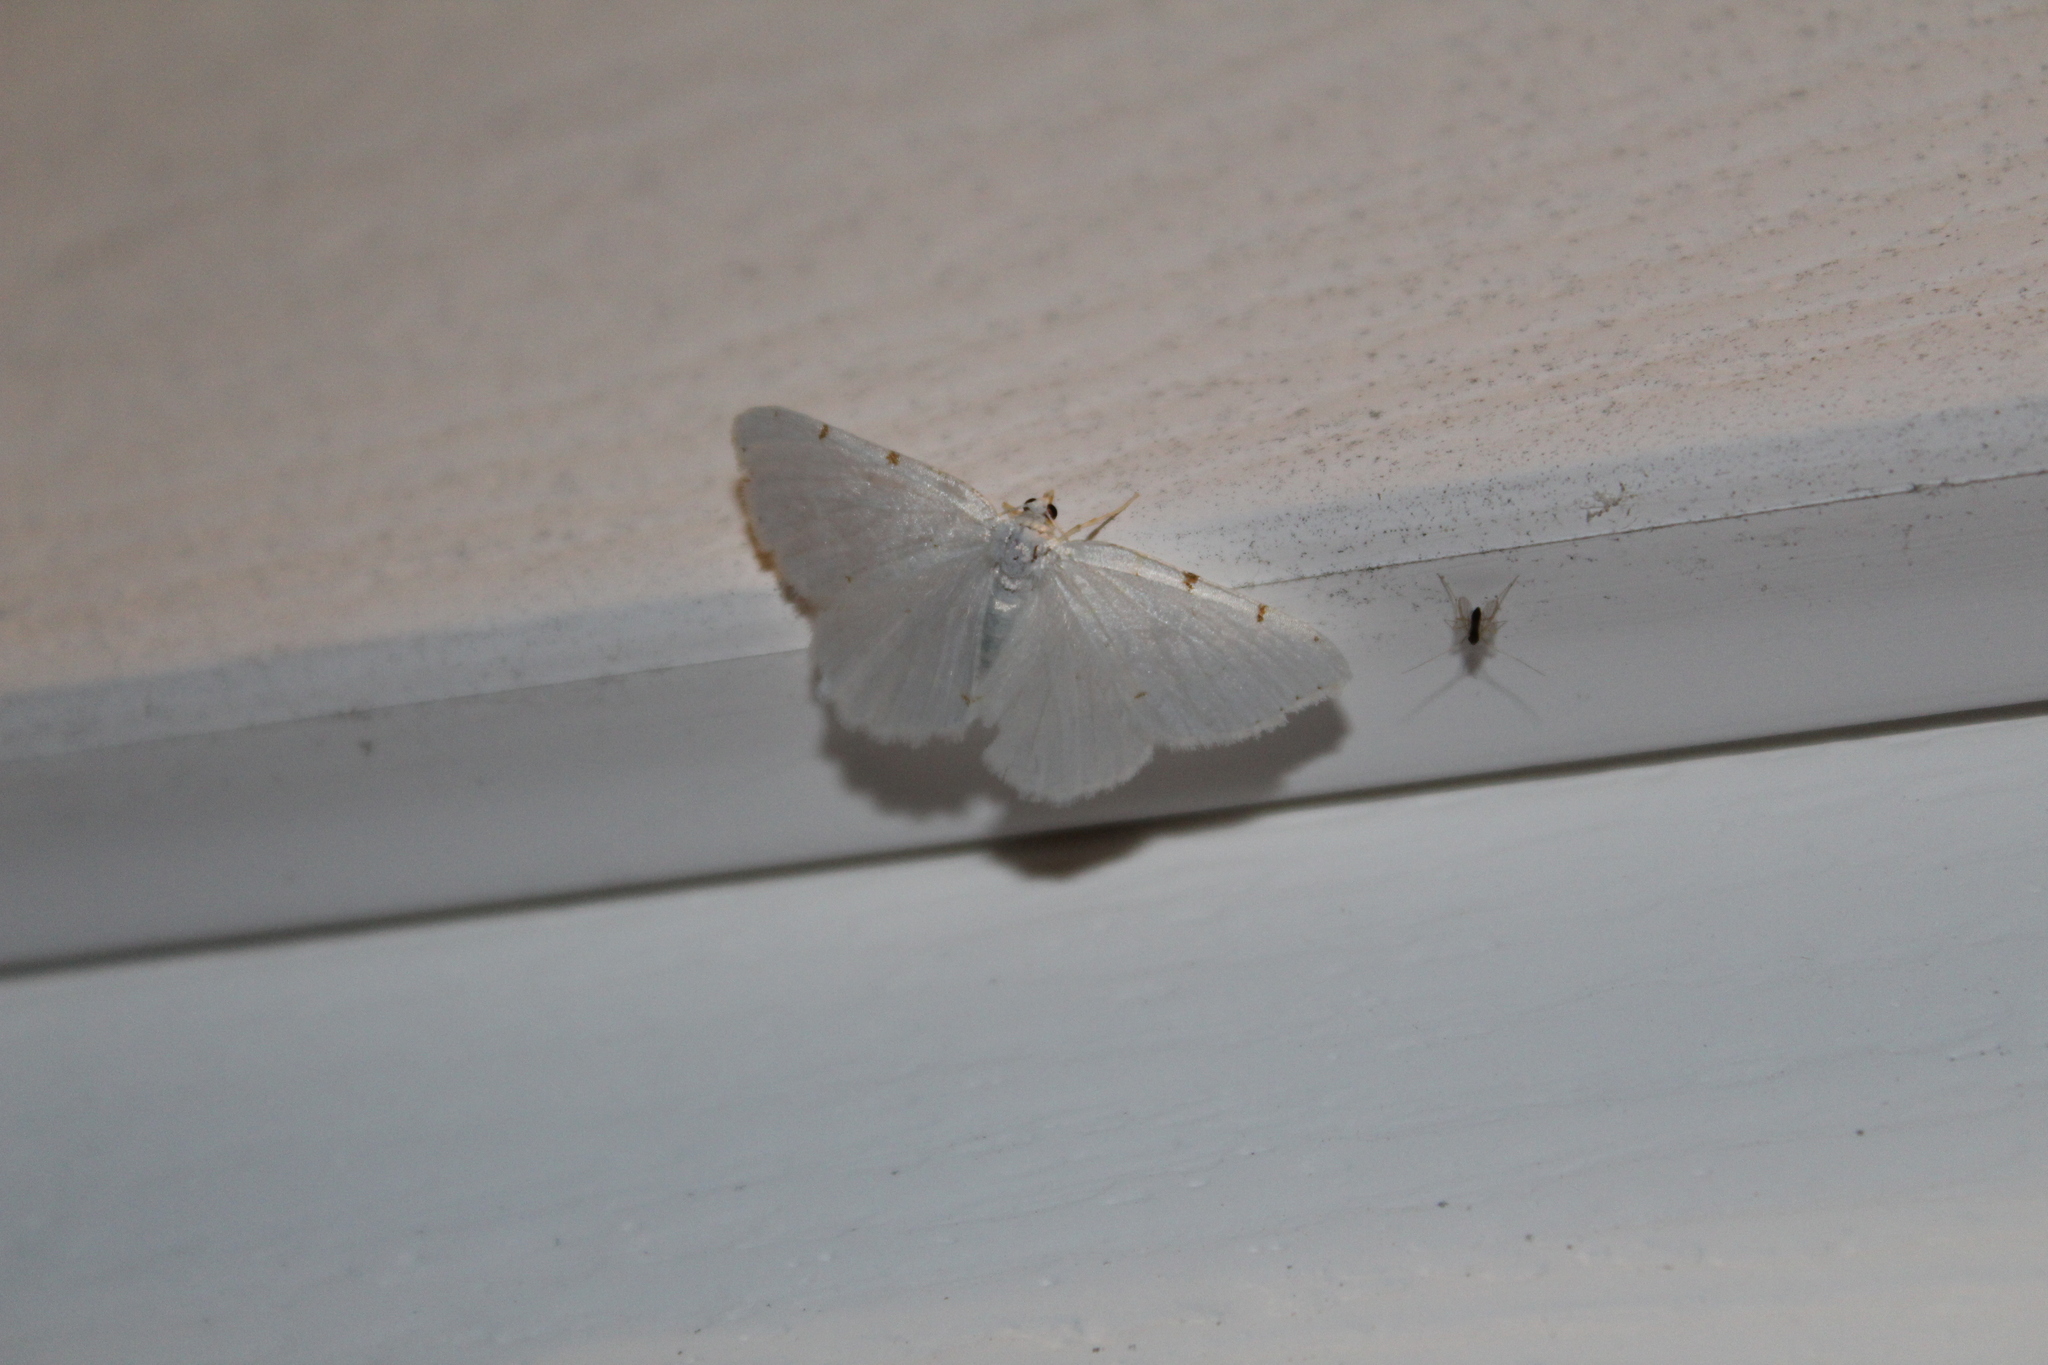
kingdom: Animalia
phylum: Arthropoda
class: Insecta
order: Lepidoptera
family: Geometridae
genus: Macaria
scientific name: Macaria pustularia
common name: Lesser maple spanworm moth
